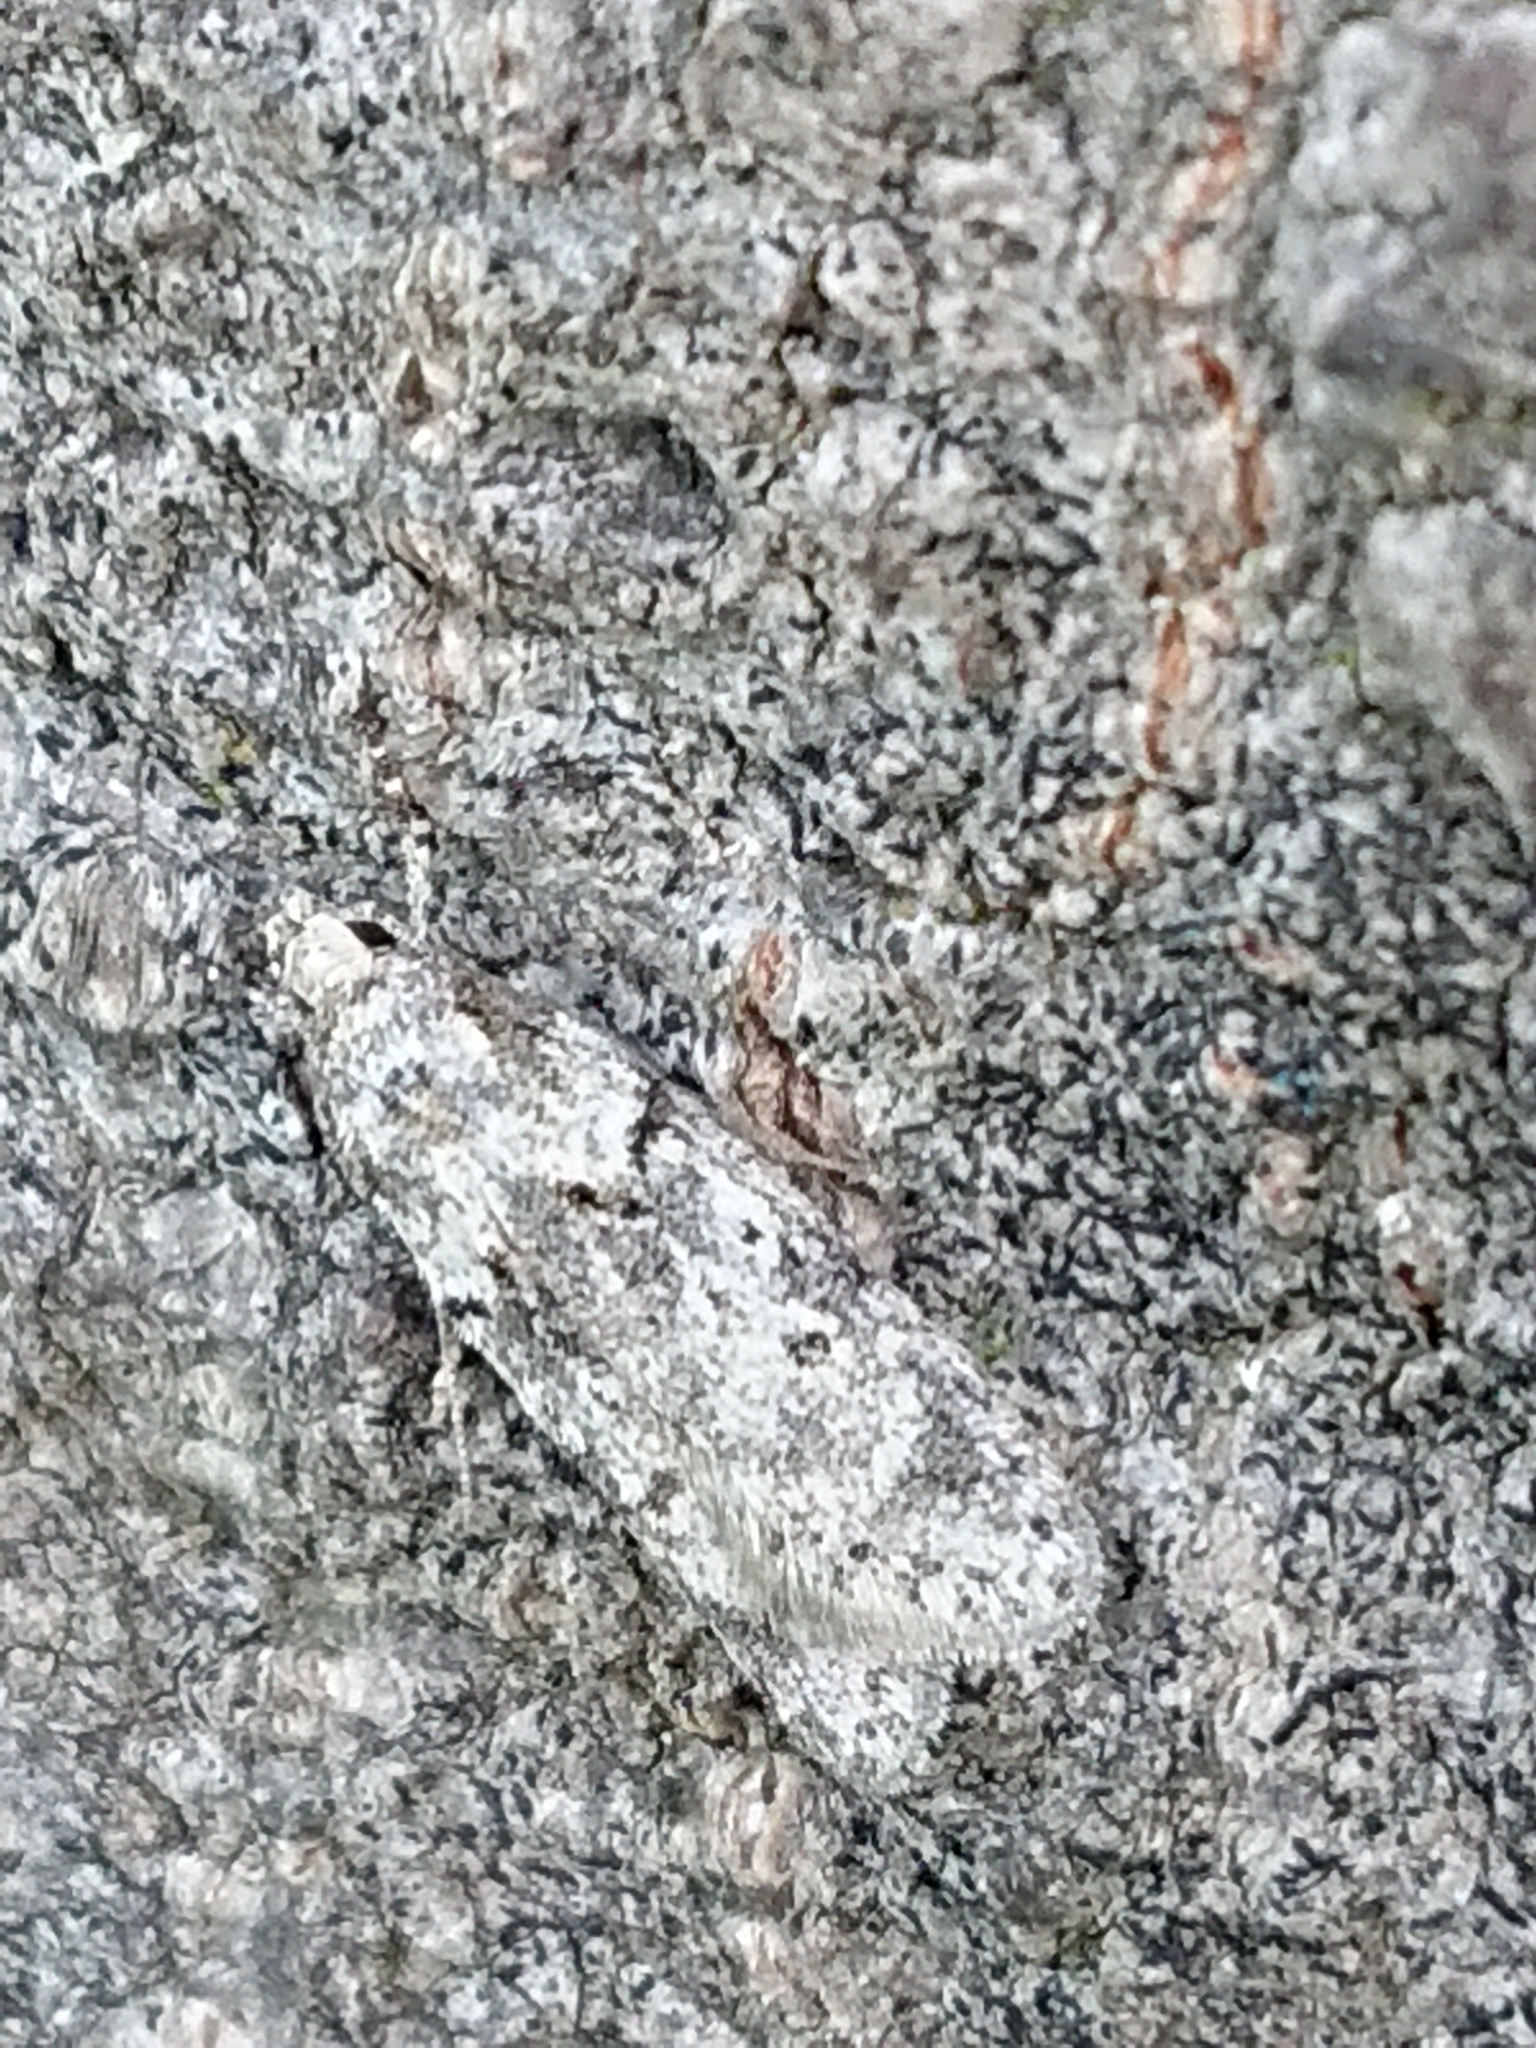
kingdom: Animalia
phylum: Arthropoda
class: Insecta
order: Lepidoptera
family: Oecophoridae
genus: Izatha
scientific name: Izatha convulsella
